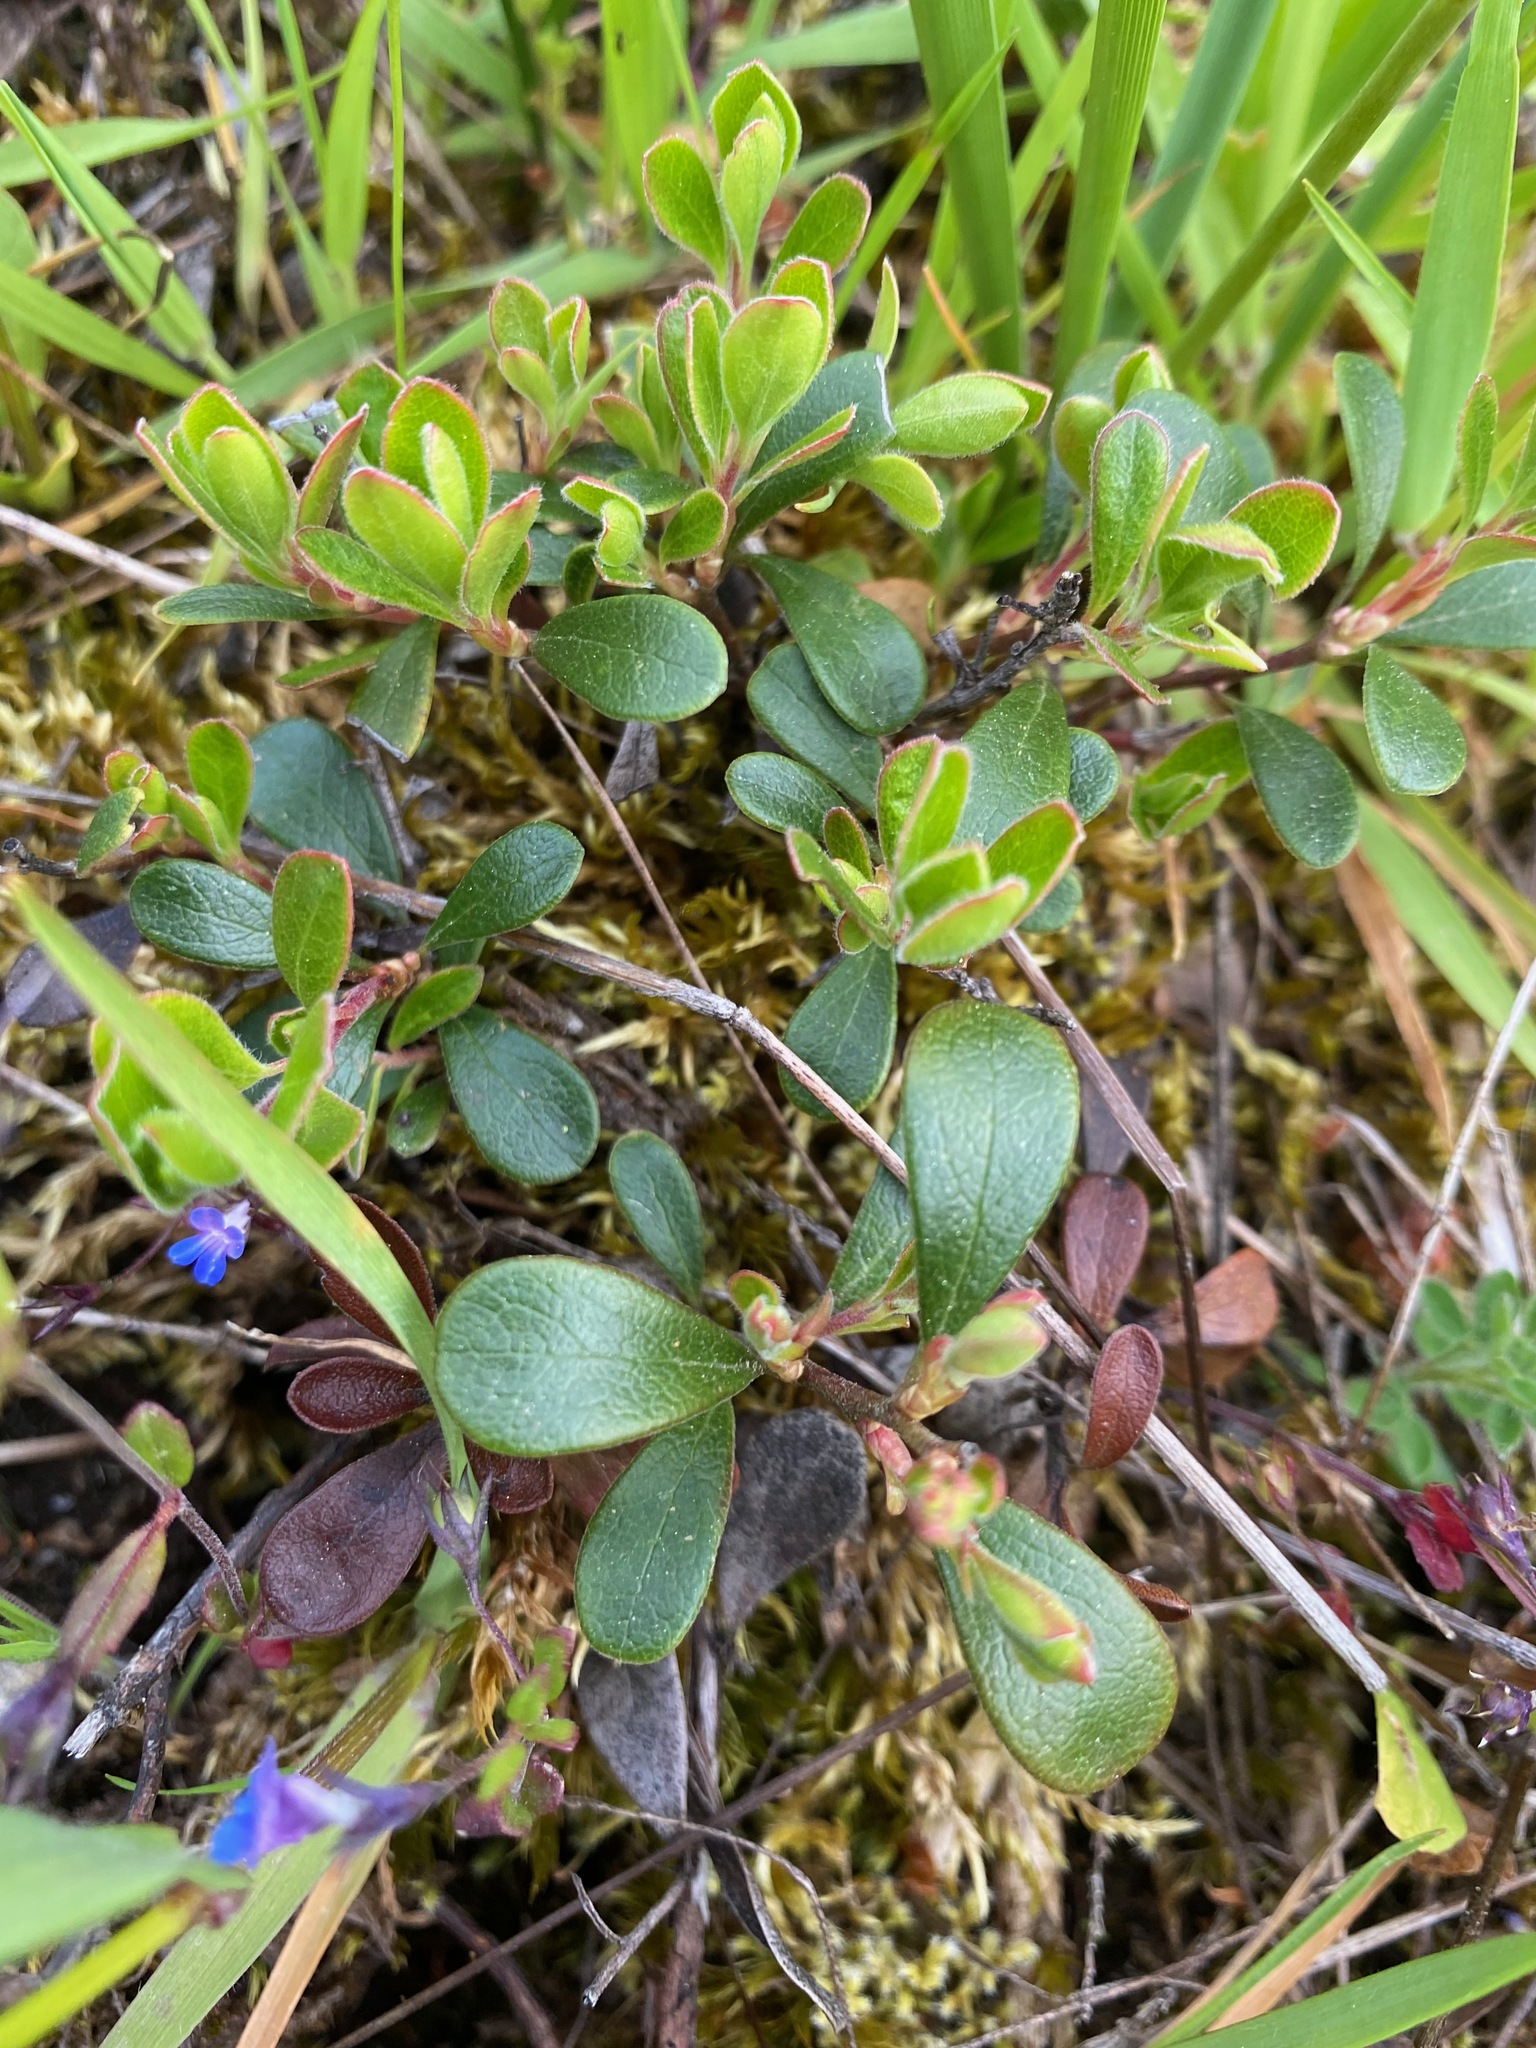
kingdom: Plantae
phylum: Tracheophyta
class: Magnoliopsida
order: Ericales
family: Ericaceae
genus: Arctostaphylos
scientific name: Arctostaphylos uva-ursi
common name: Bearberry
